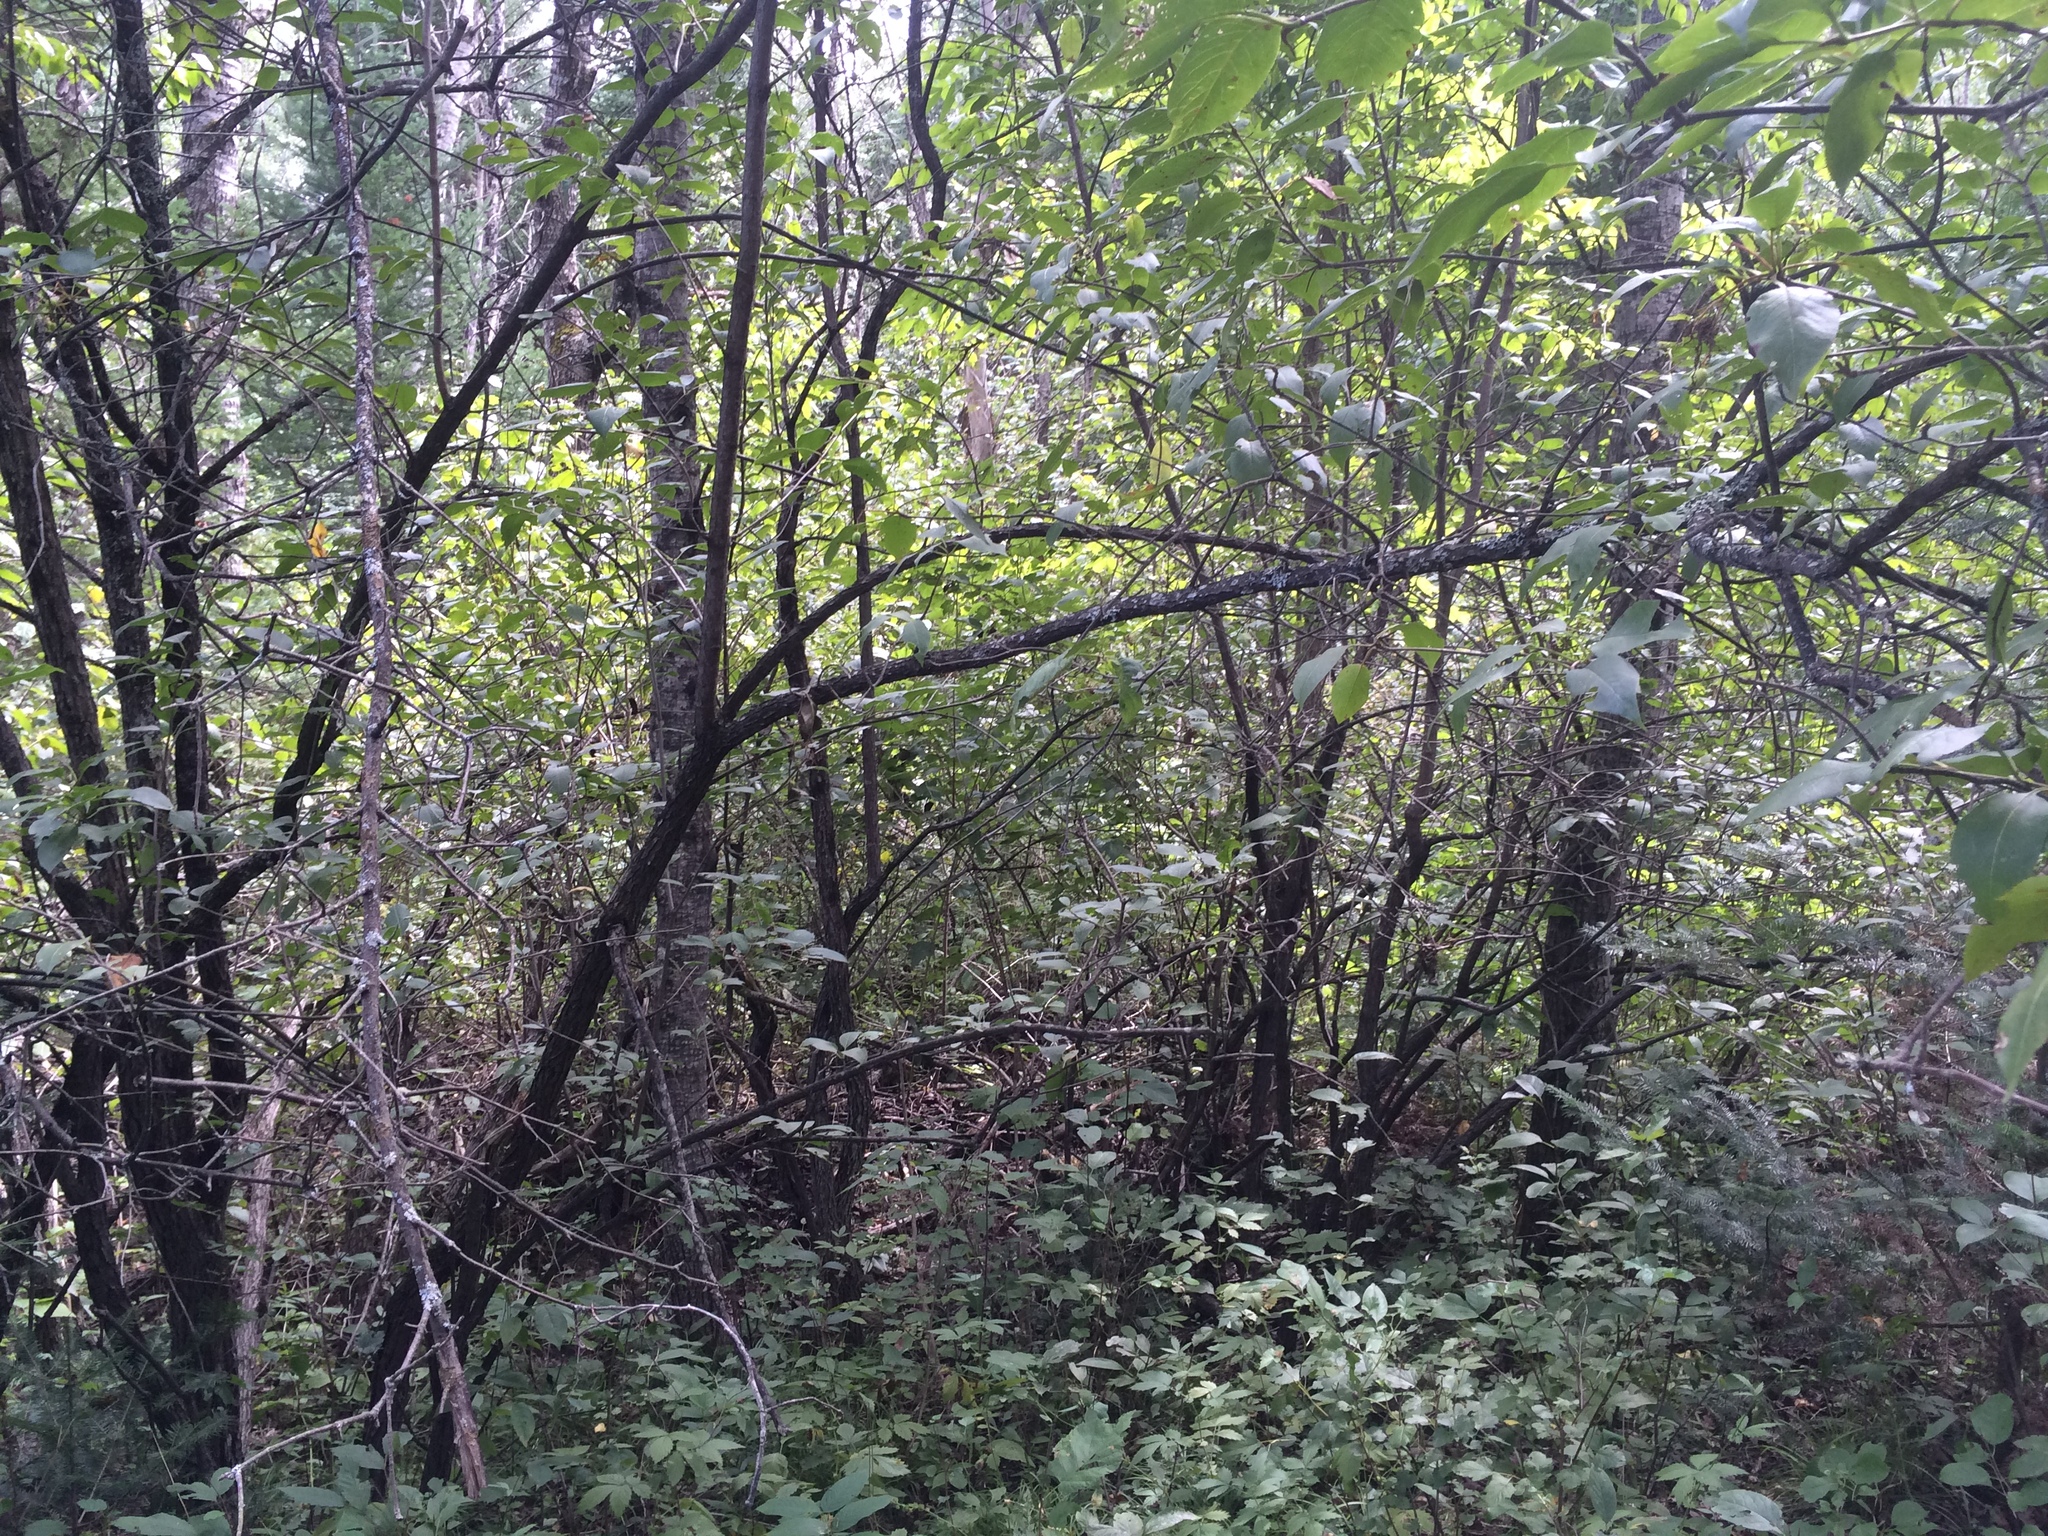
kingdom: Plantae
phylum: Tracheophyta
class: Magnoliopsida
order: Dipsacales
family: Viburnaceae
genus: Viburnum
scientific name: Viburnum lentago
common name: Black haw
